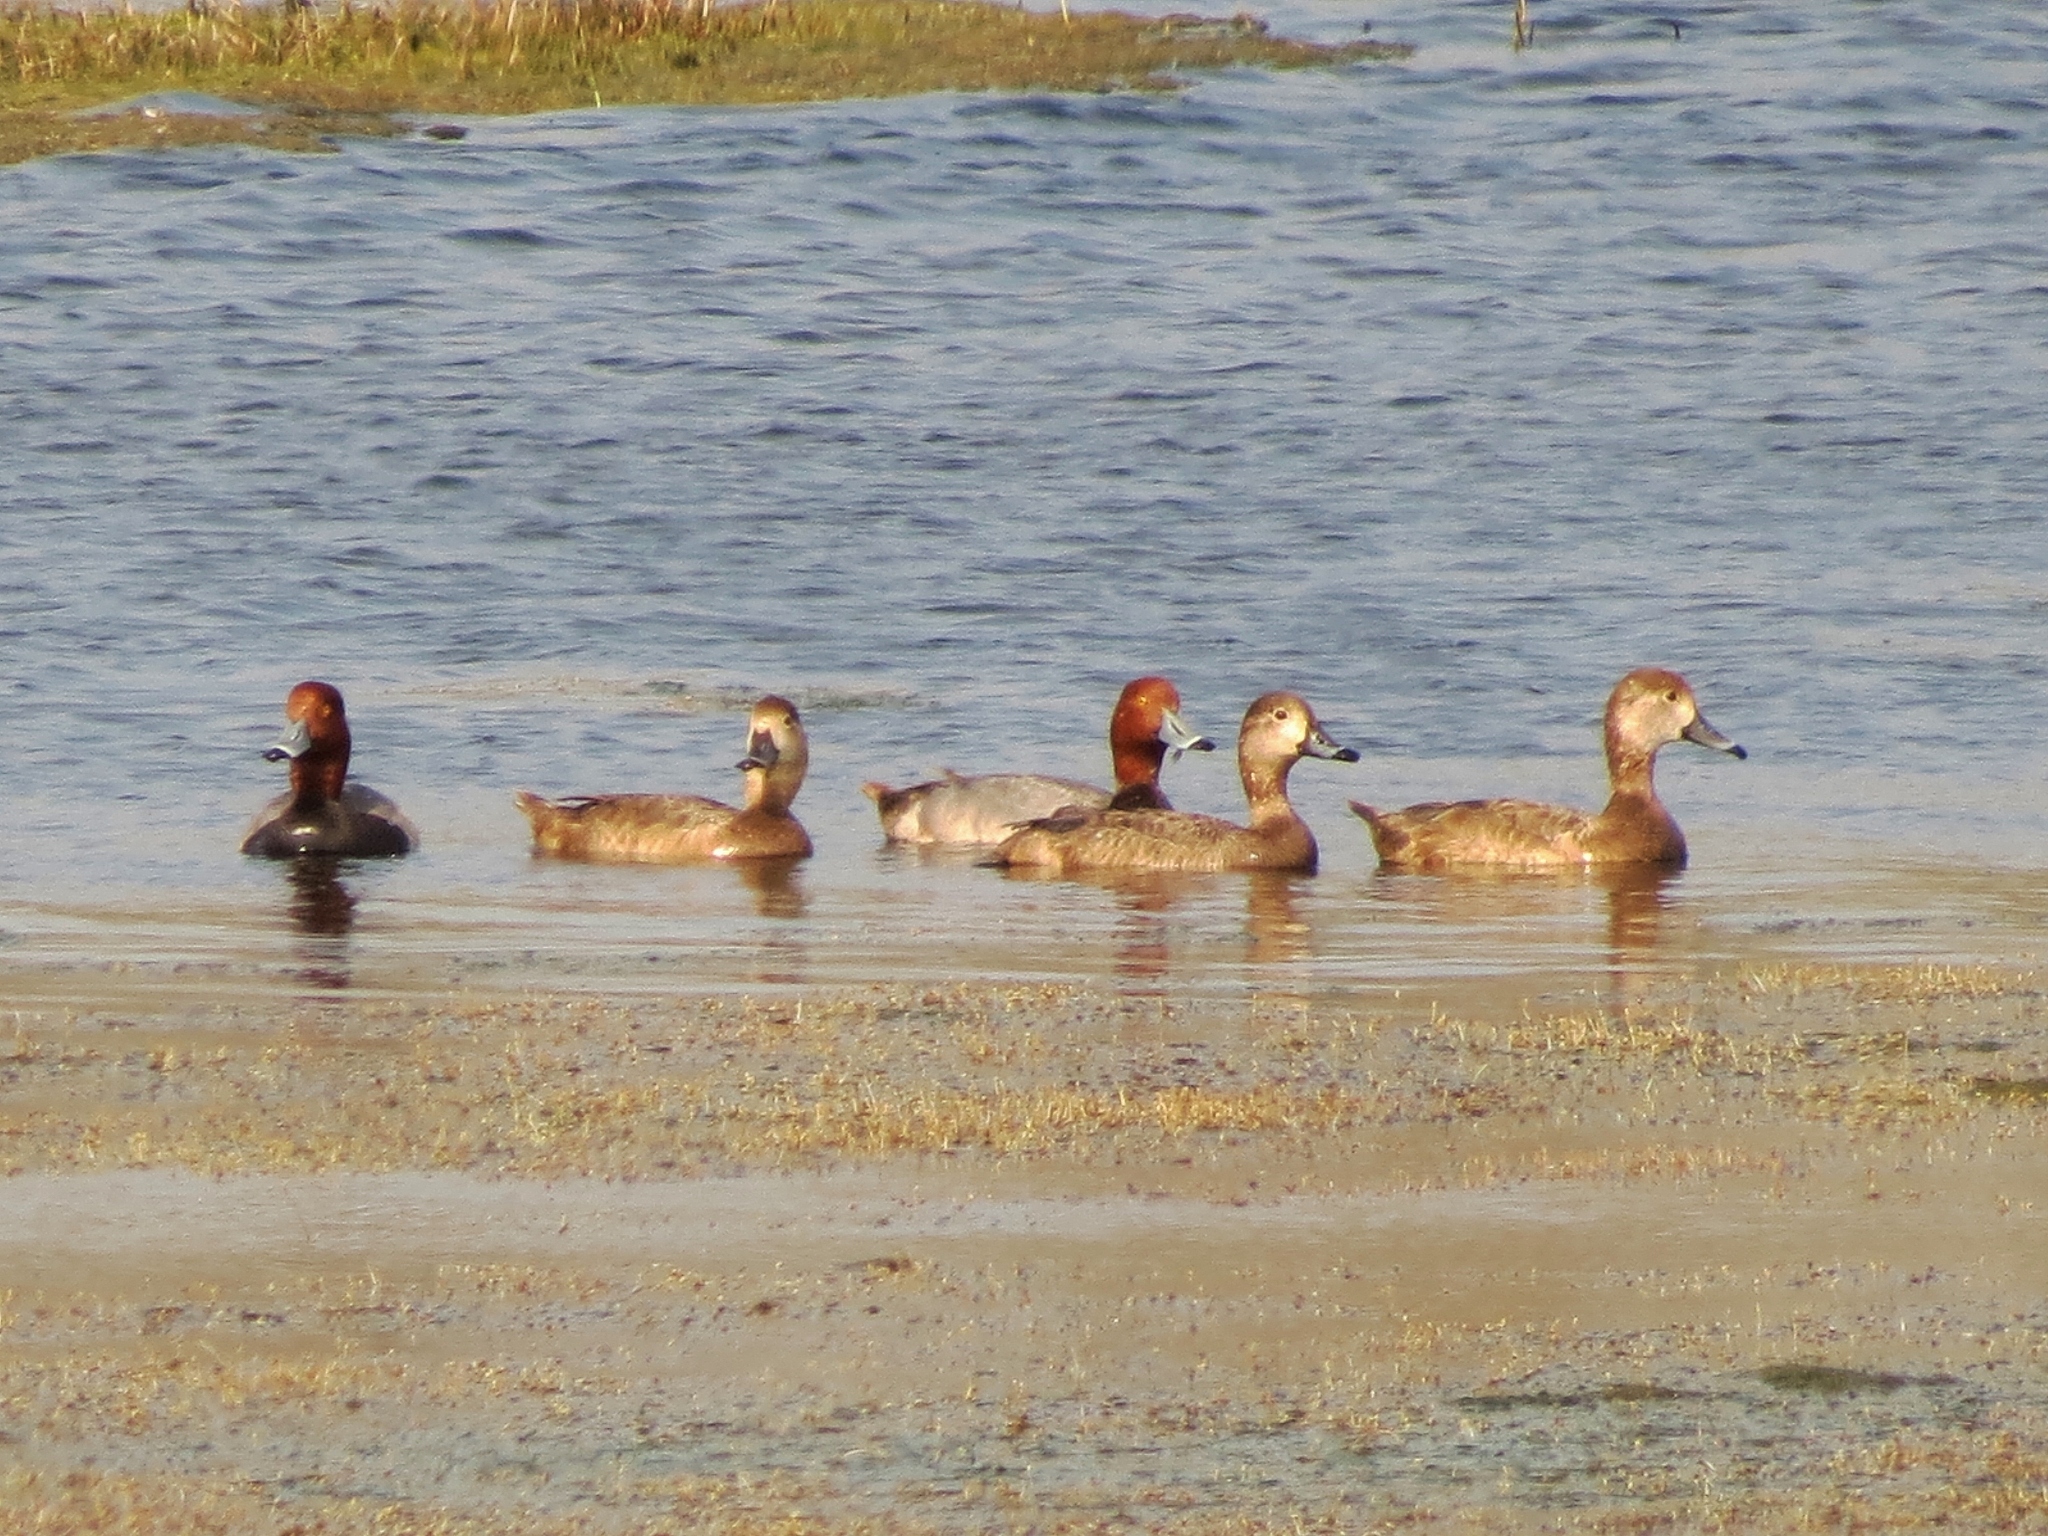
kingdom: Animalia
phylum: Chordata
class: Aves
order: Anseriformes
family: Anatidae
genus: Aythya
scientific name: Aythya americana
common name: Redhead
